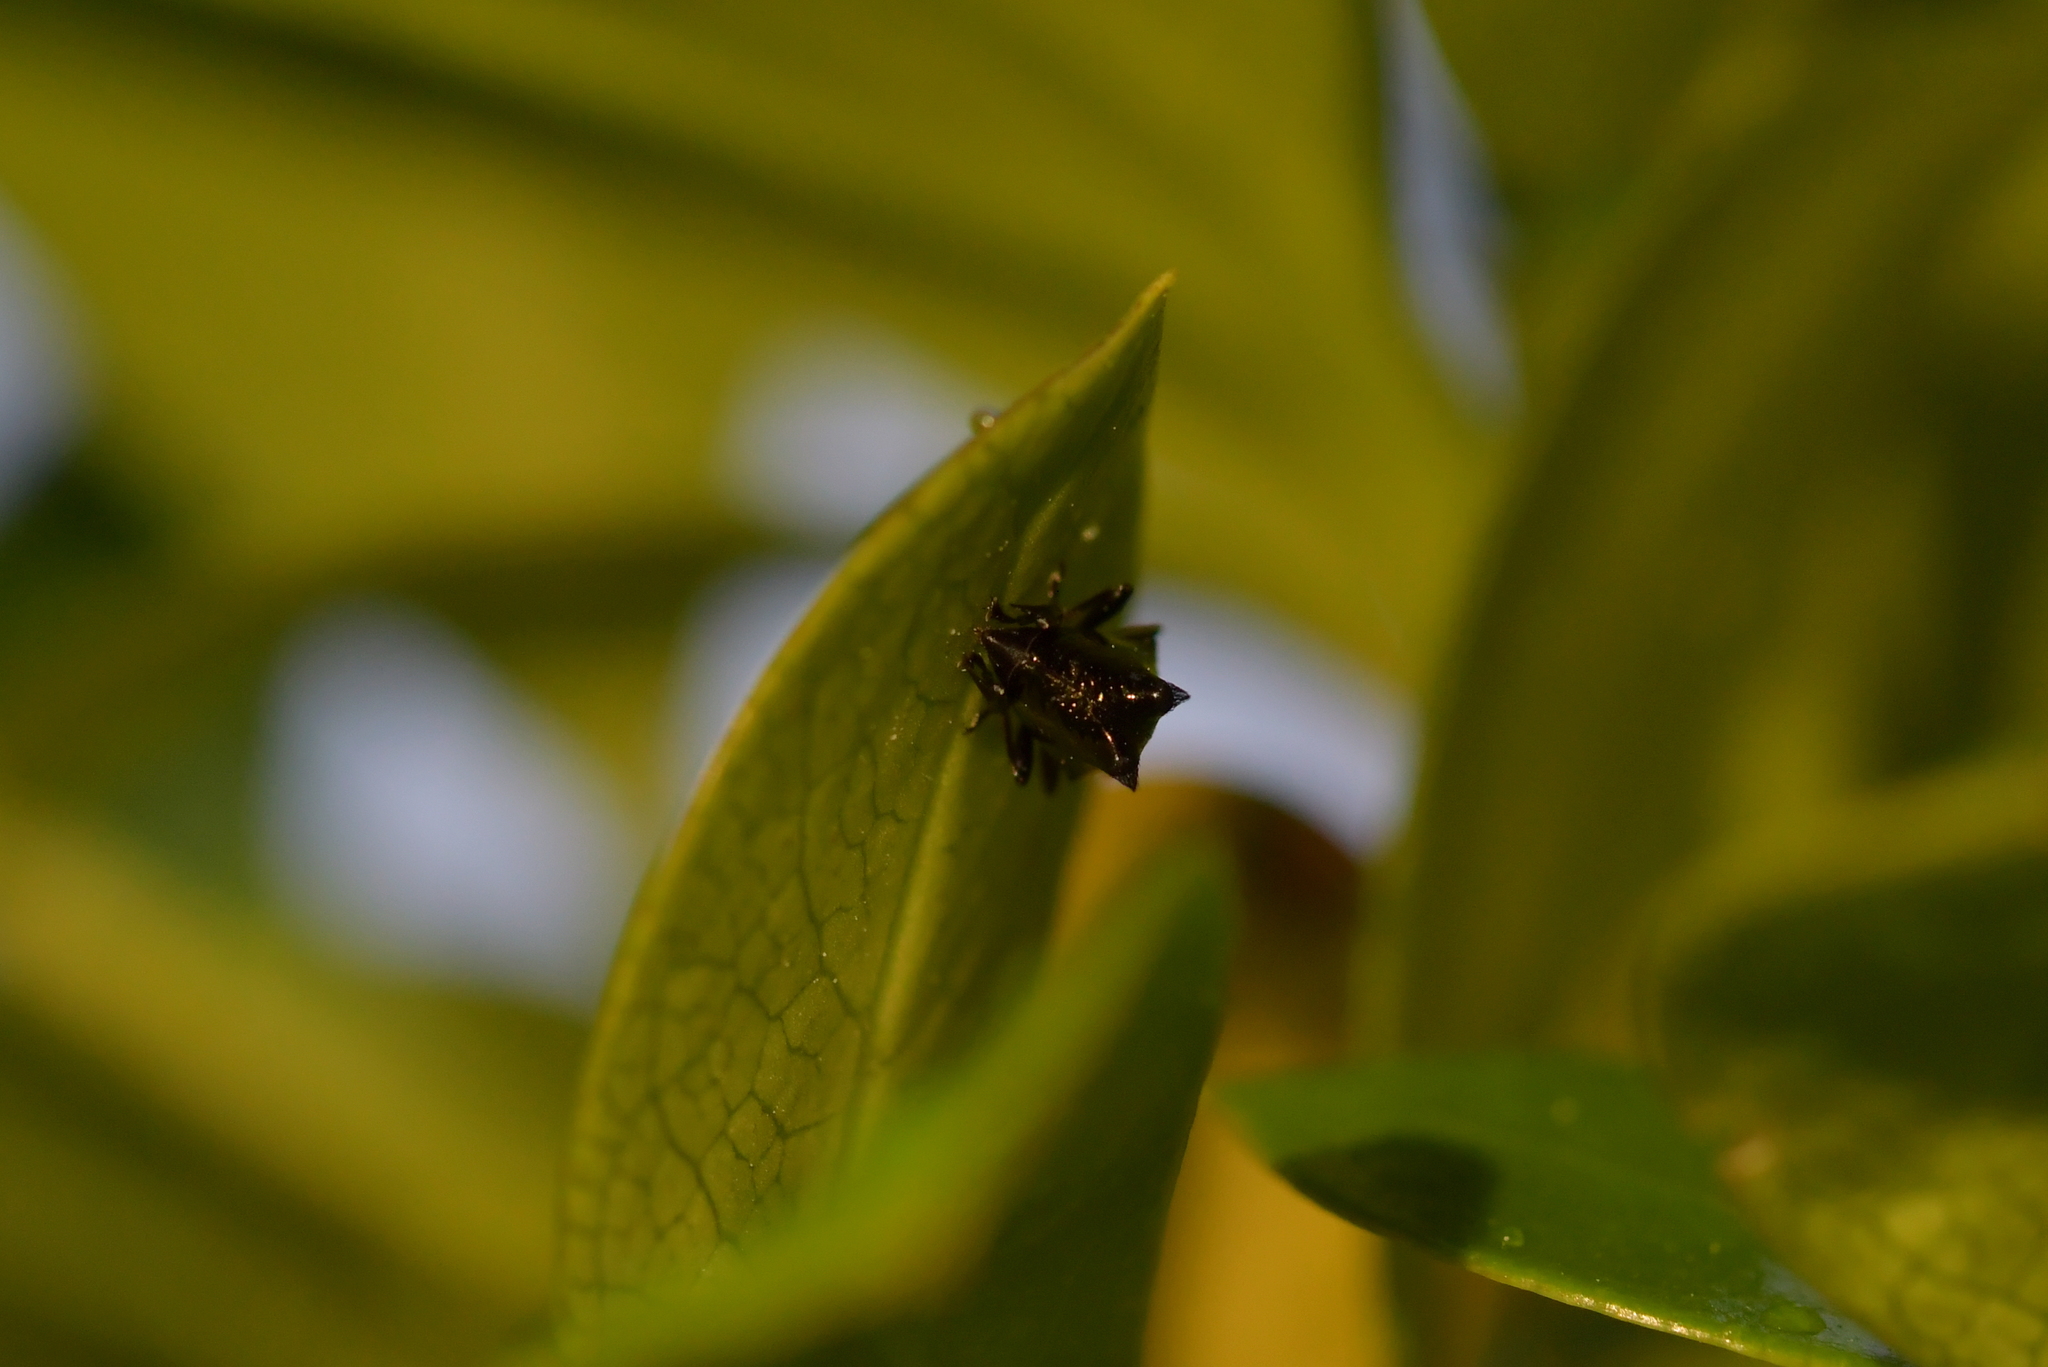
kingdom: Animalia
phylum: Arthropoda
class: Insecta
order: Coleoptera
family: Curculionidae
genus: Scolopterus
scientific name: Scolopterus penicillatus
